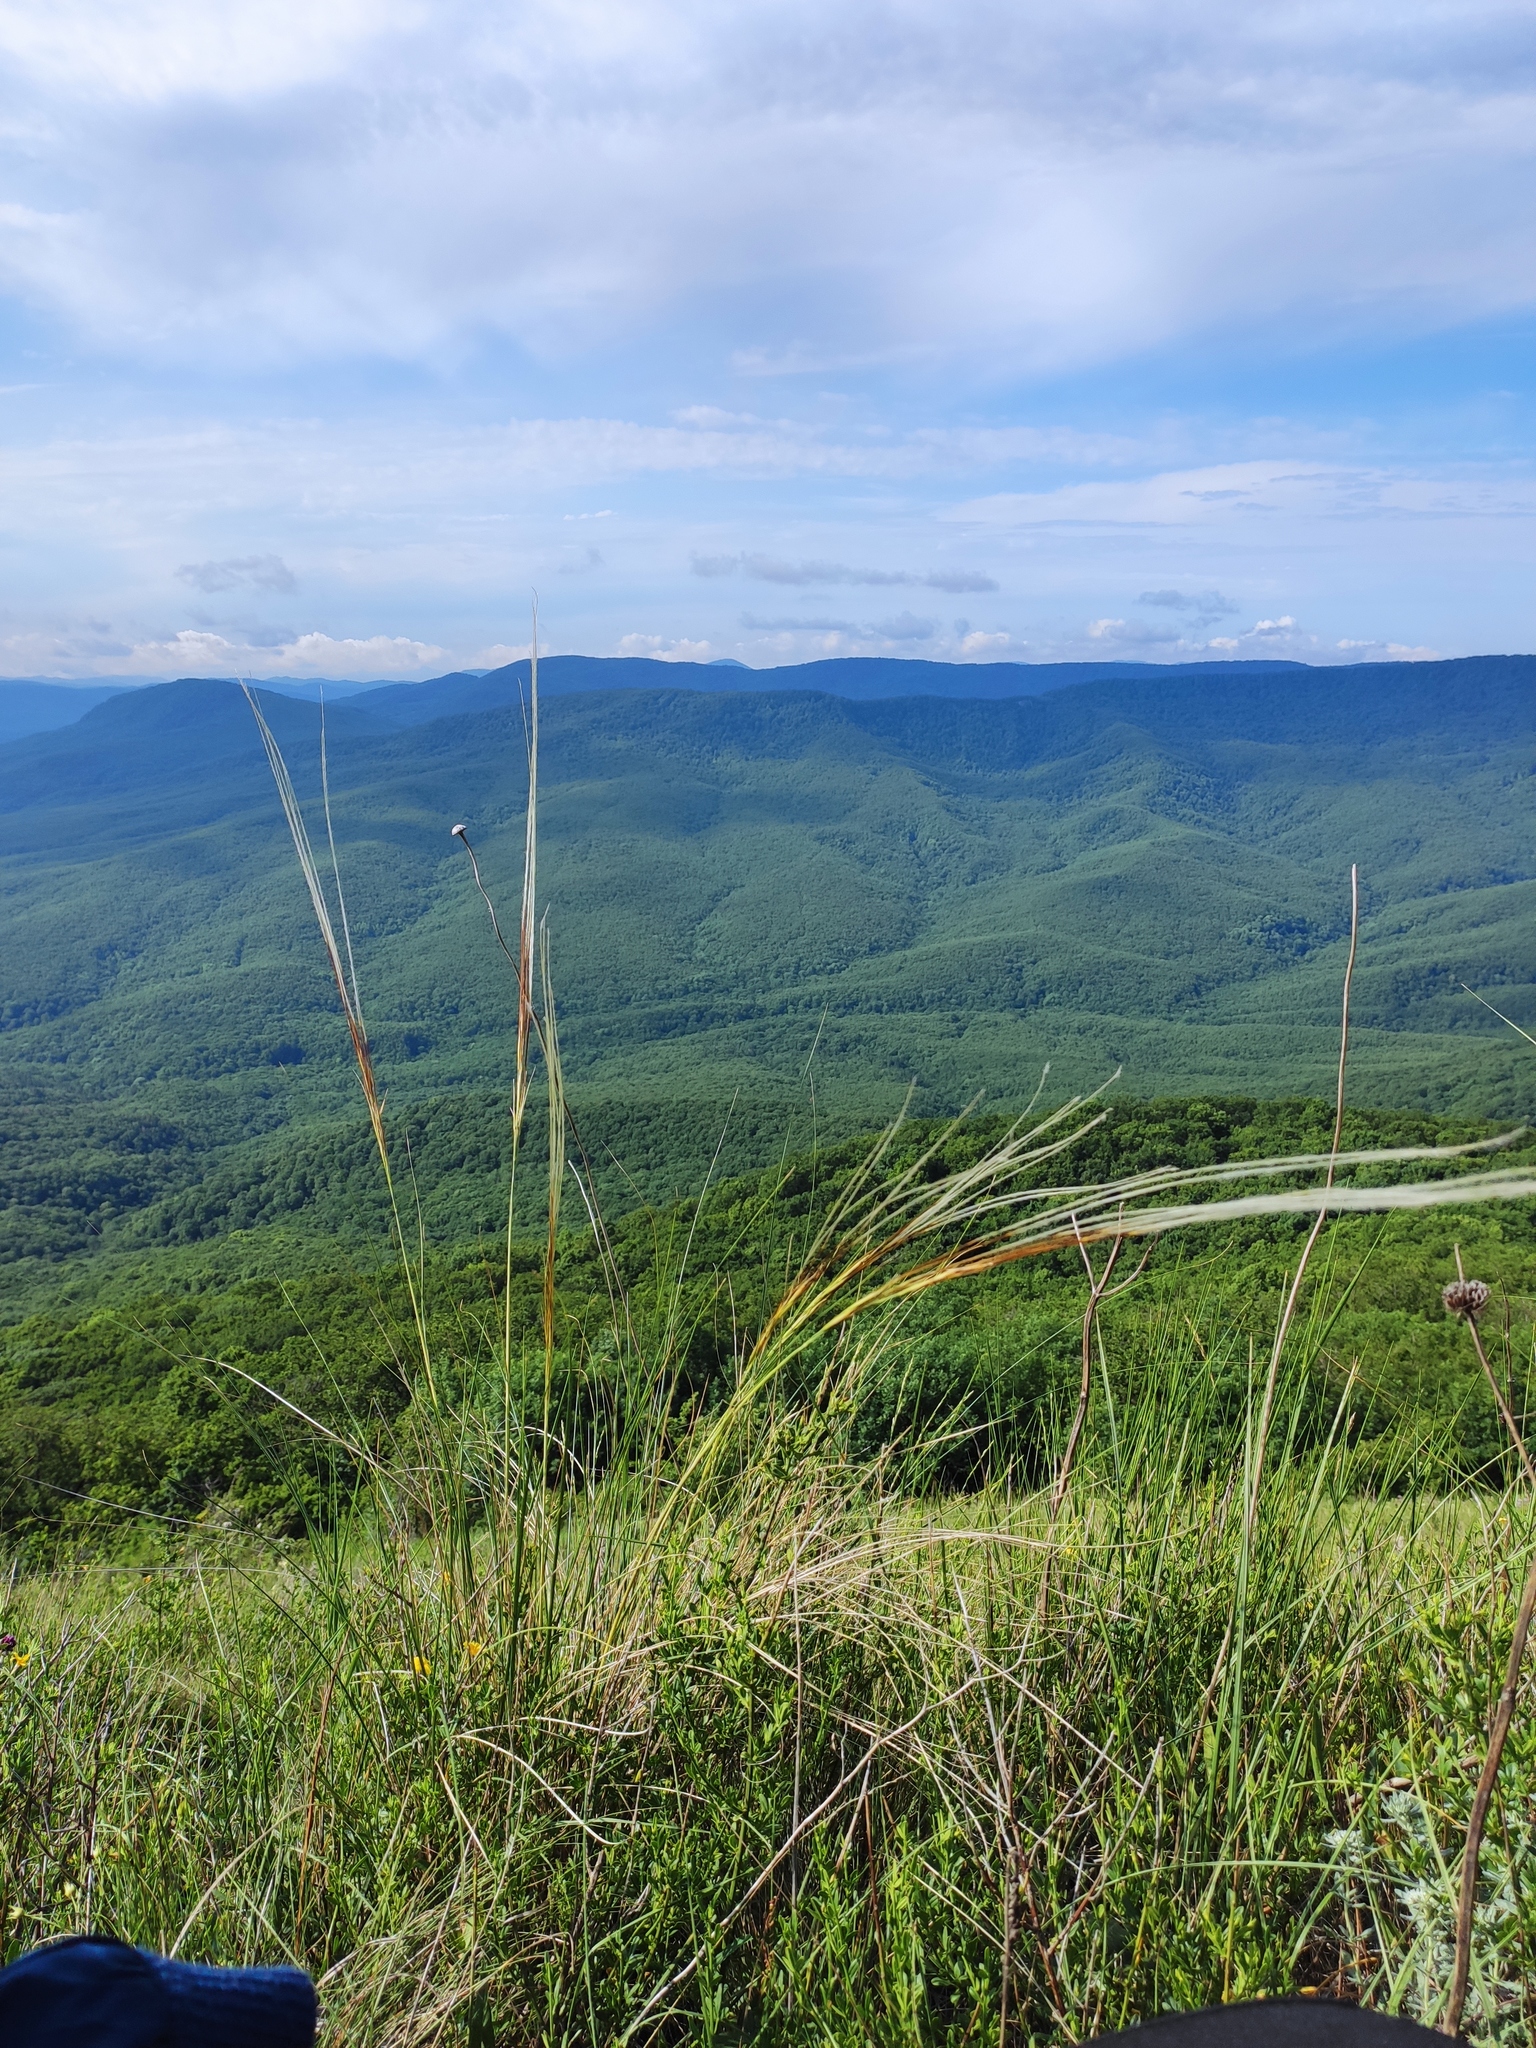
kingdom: Plantae
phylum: Tracheophyta
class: Liliopsida
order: Poales
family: Poaceae
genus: Stipa
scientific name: Stipa pennata
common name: European feather grass
